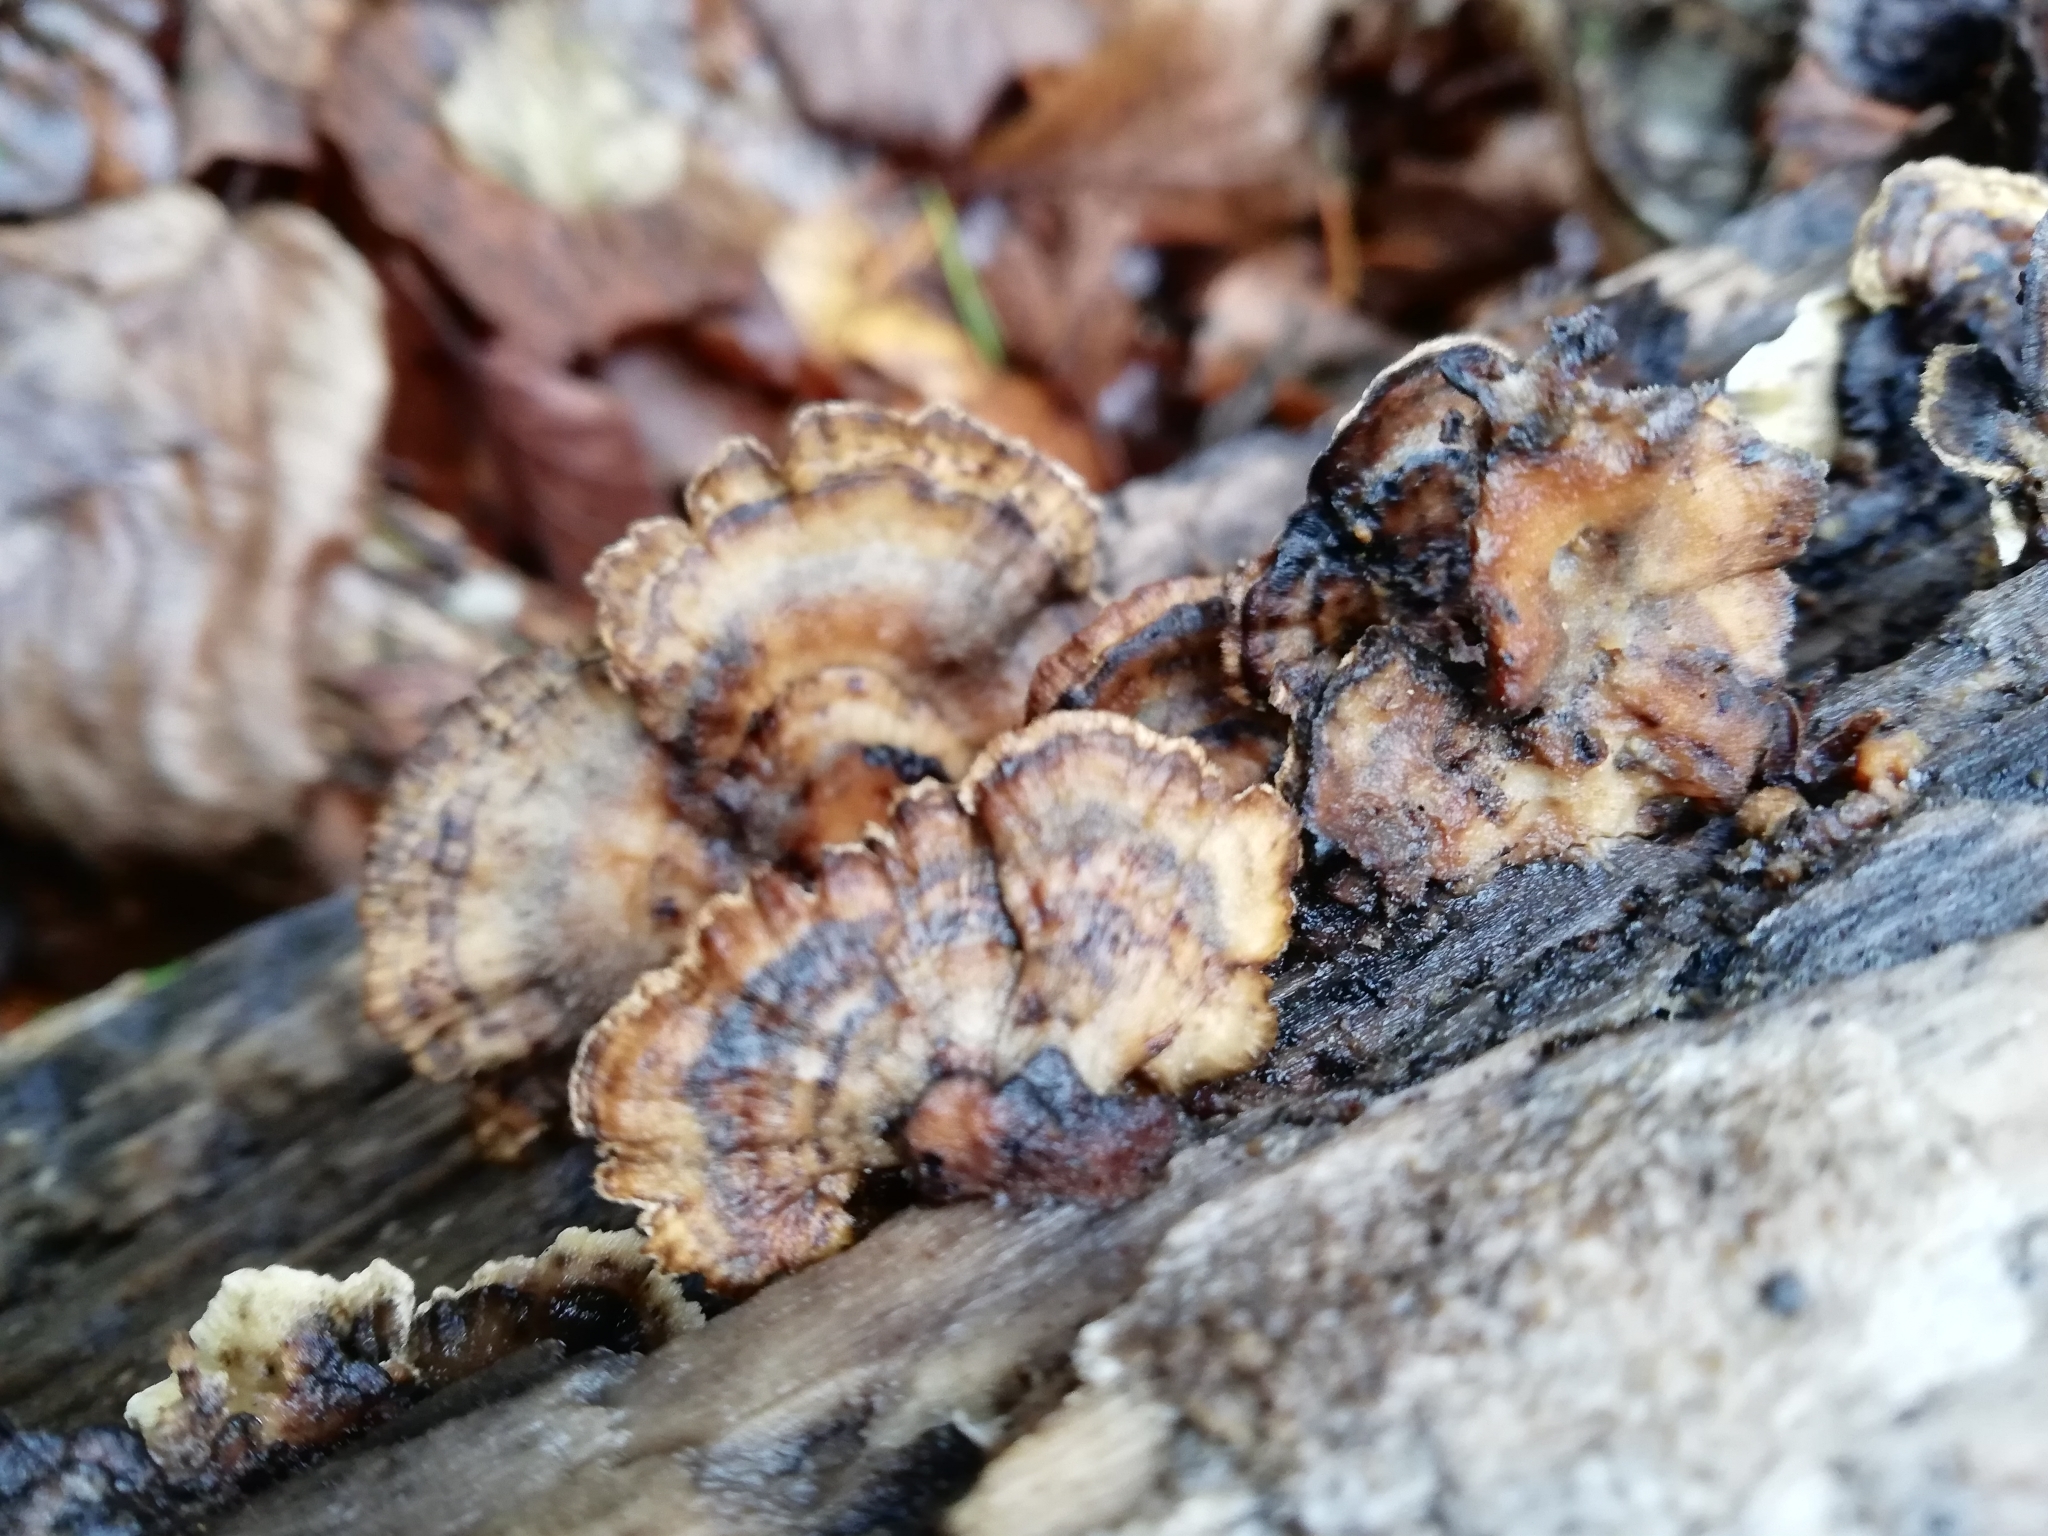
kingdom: Fungi
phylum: Basidiomycota
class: Agaricomycetes
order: Russulales
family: Stereaceae
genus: Stereum
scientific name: Stereum hirsutum
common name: Hairy curtain crust
